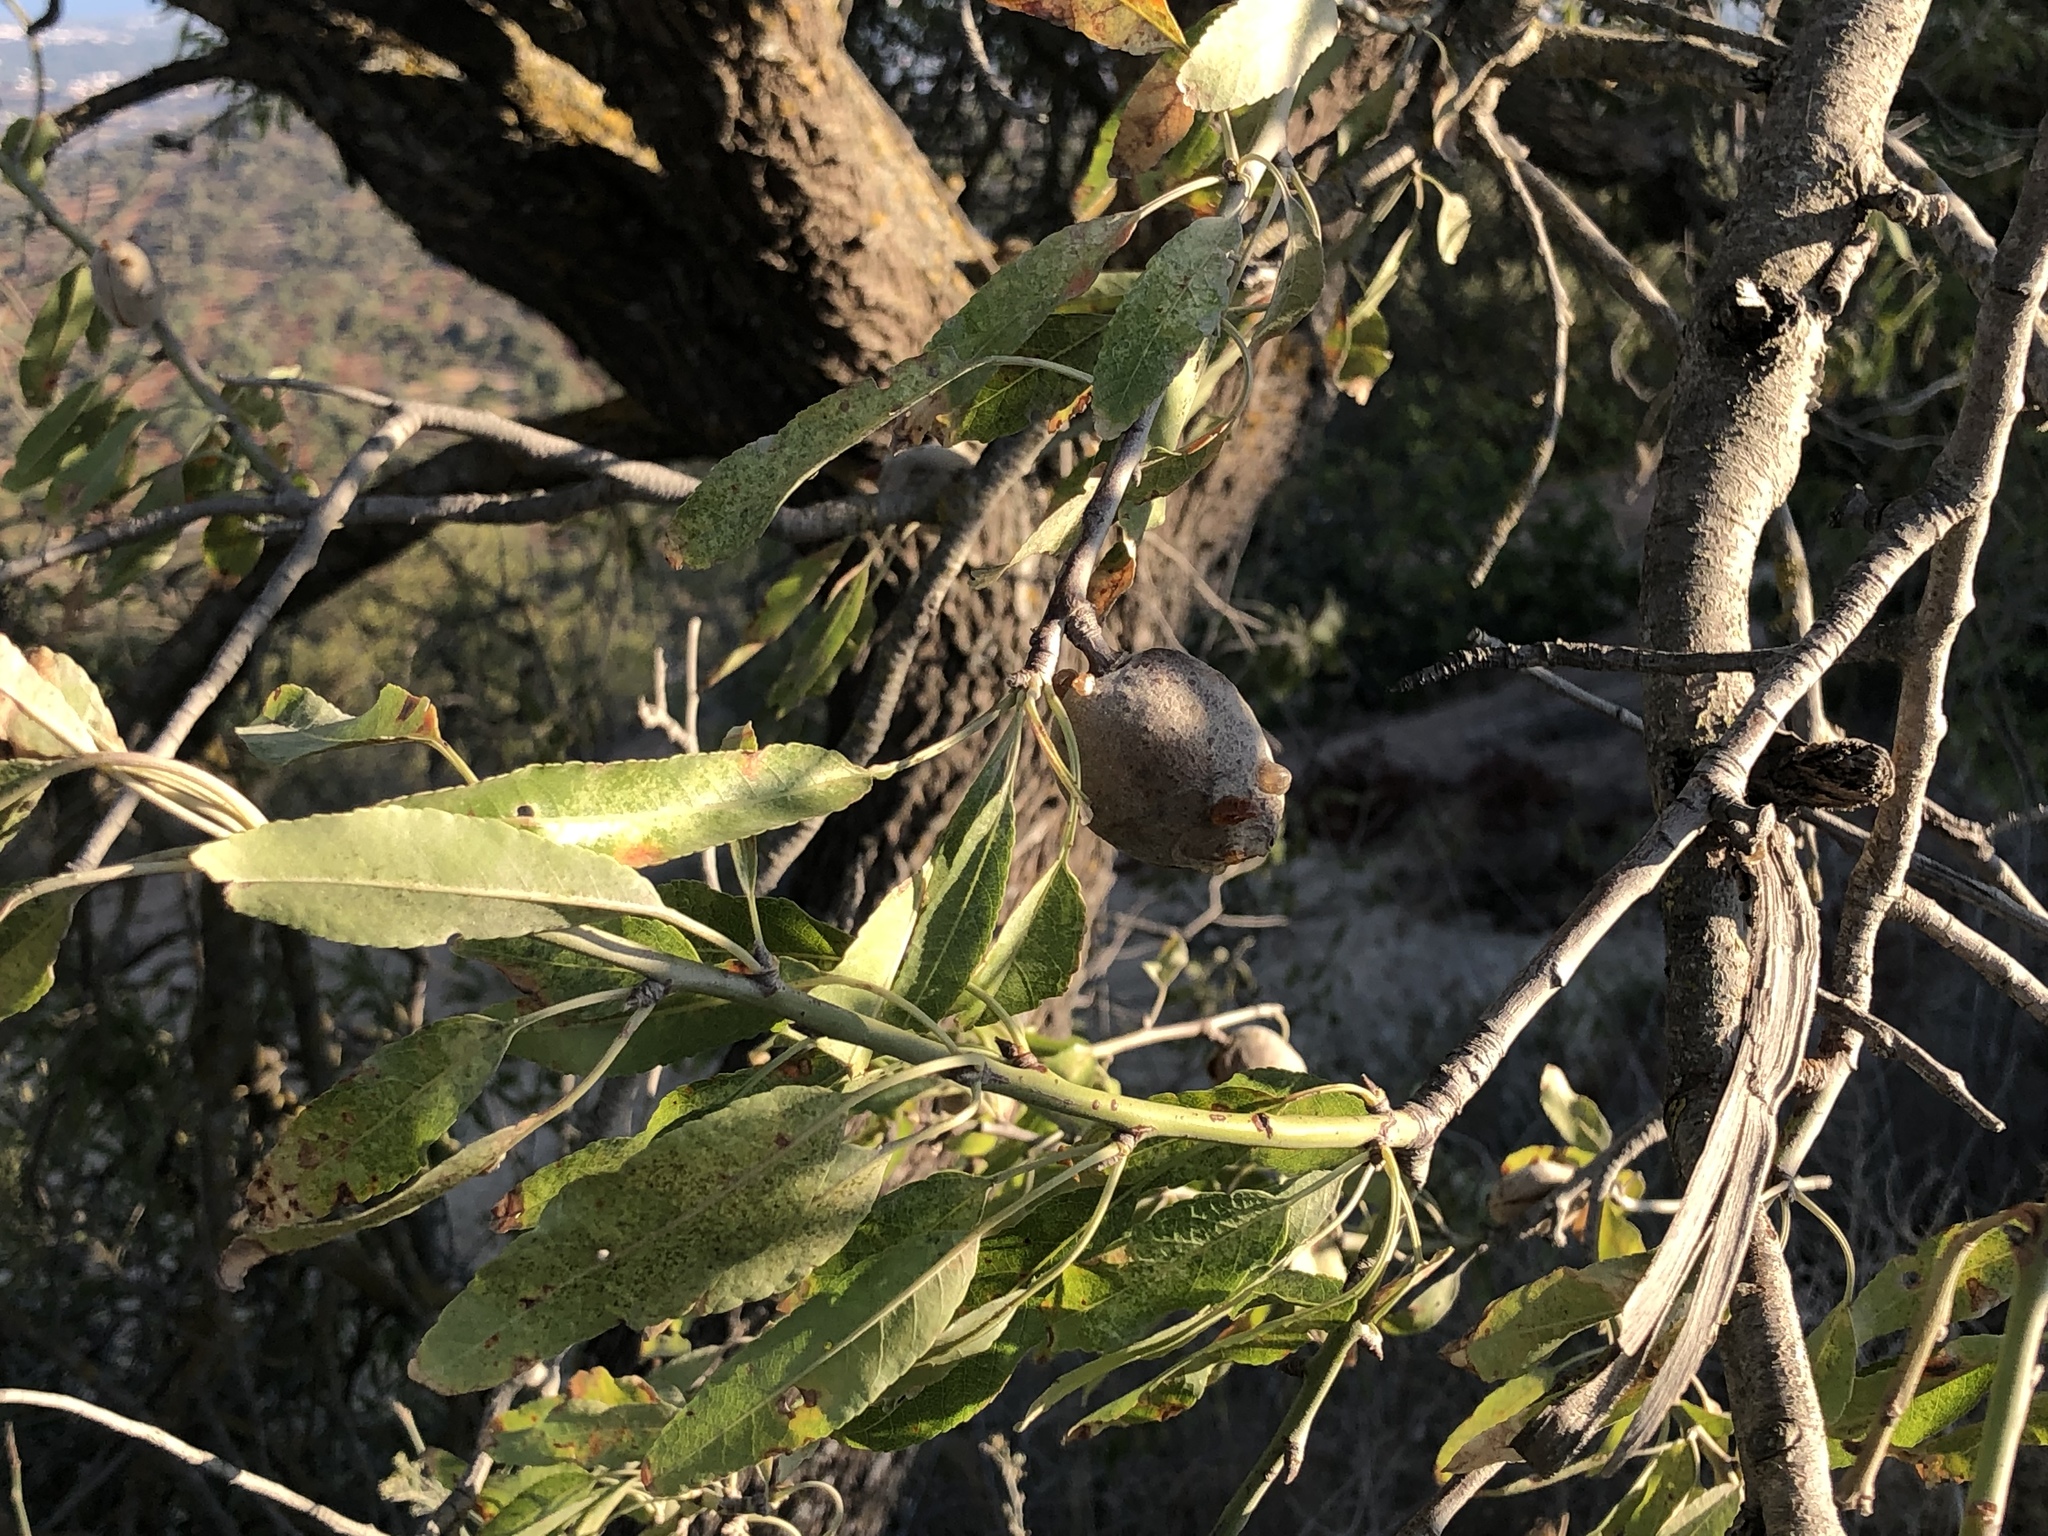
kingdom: Plantae
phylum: Tracheophyta
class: Magnoliopsida
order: Rosales
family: Rosaceae
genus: Prunus
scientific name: Prunus amygdalus
